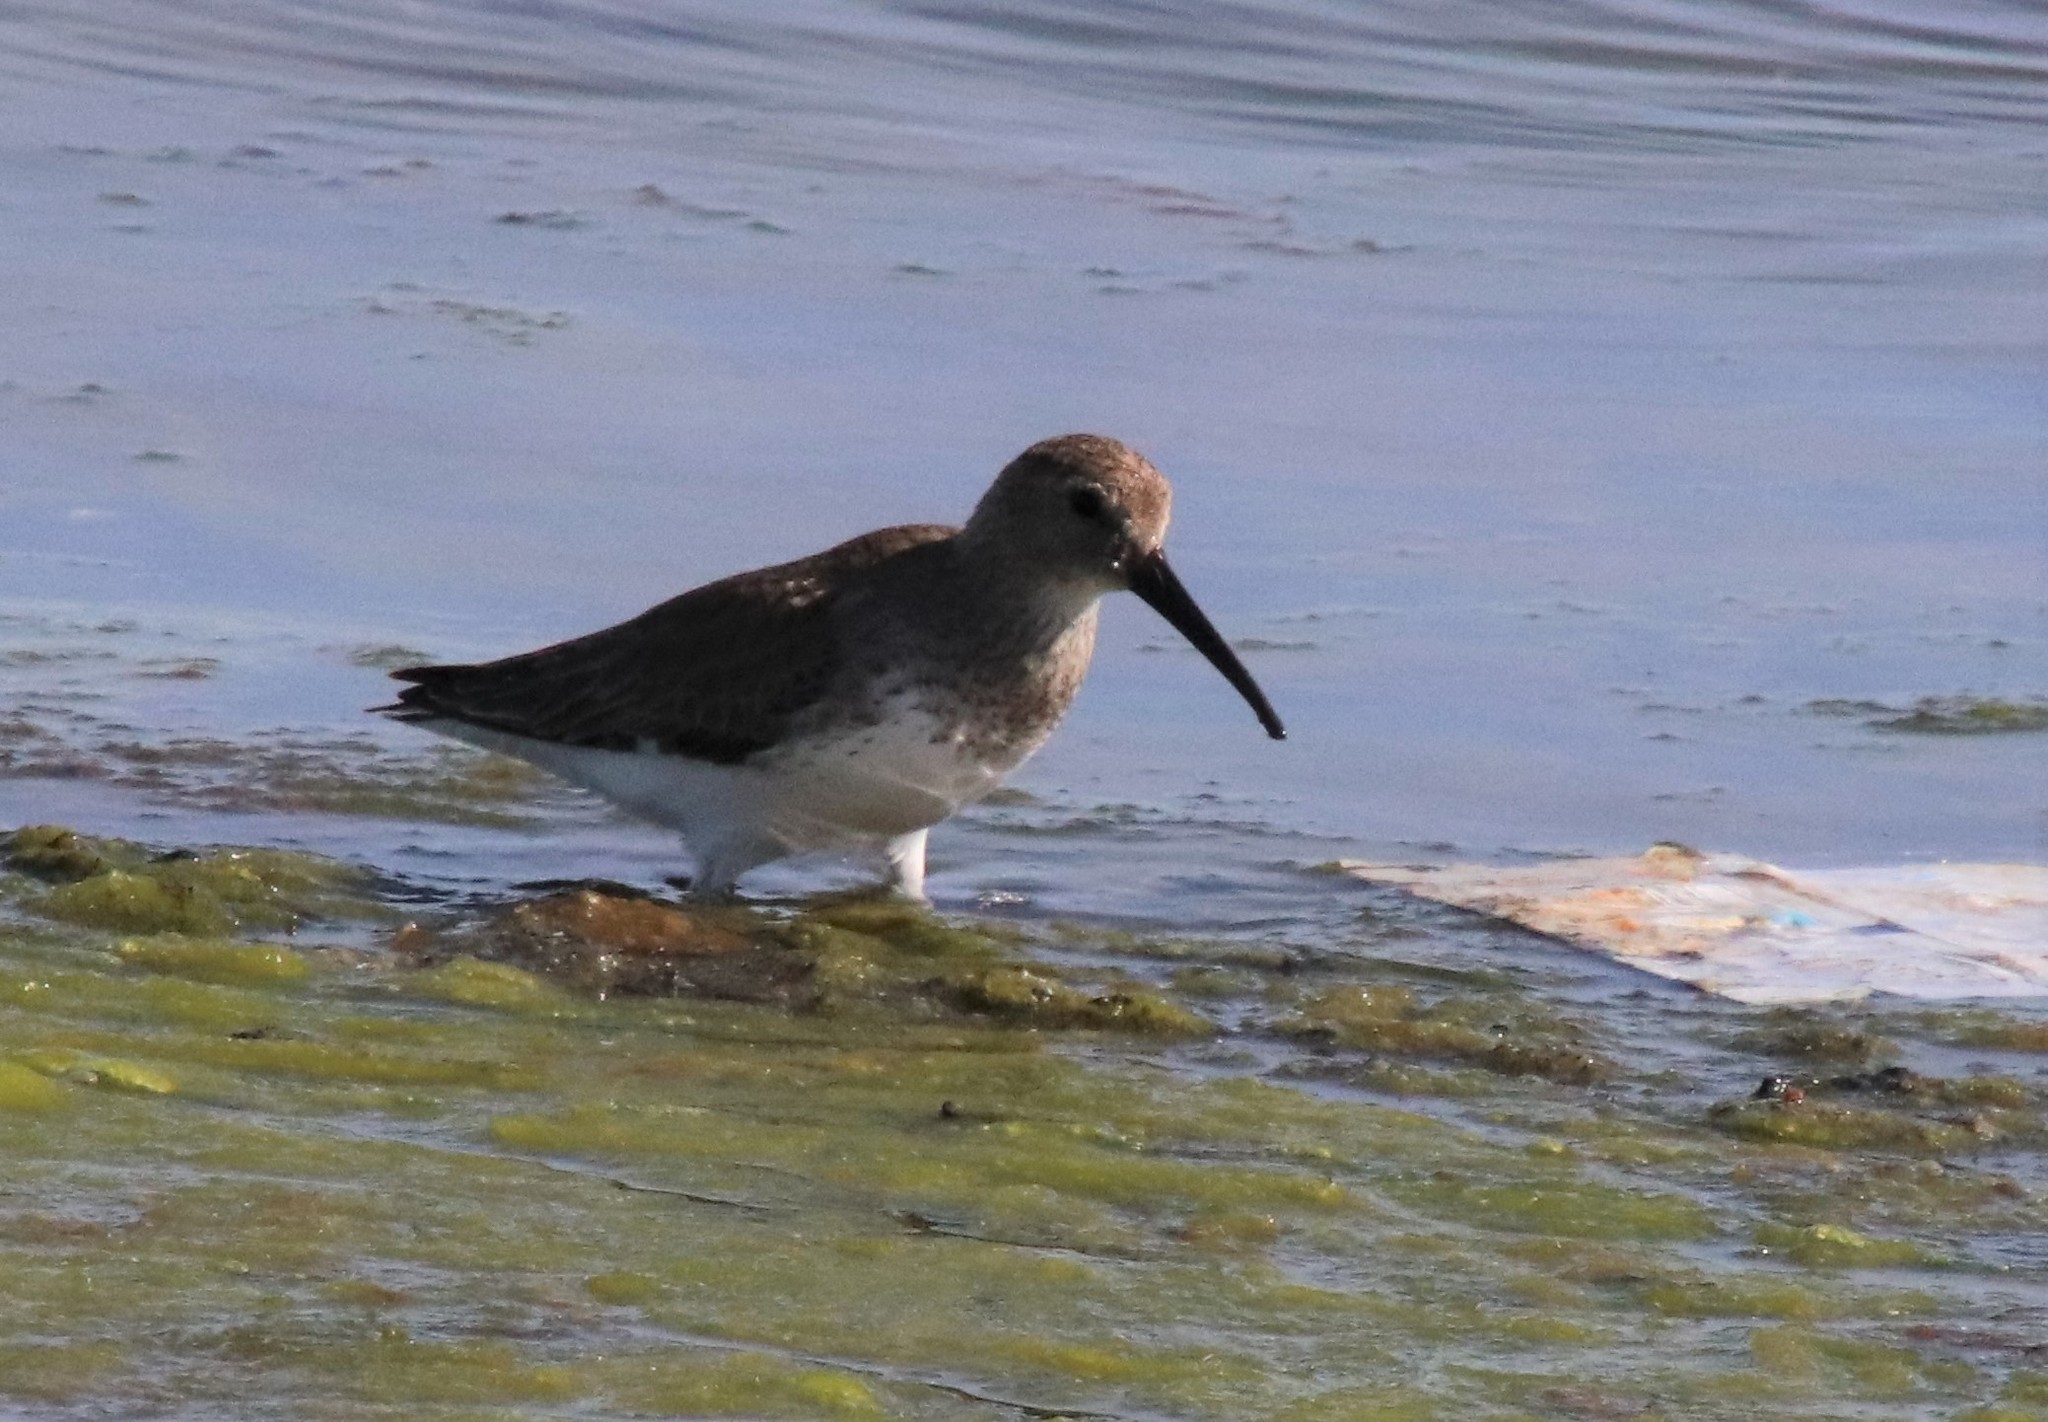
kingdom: Animalia
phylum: Chordata
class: Aves
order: Charadriiformes
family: Scolopacidae
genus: Calidris
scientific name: Calidris alpina
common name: Dunlin
